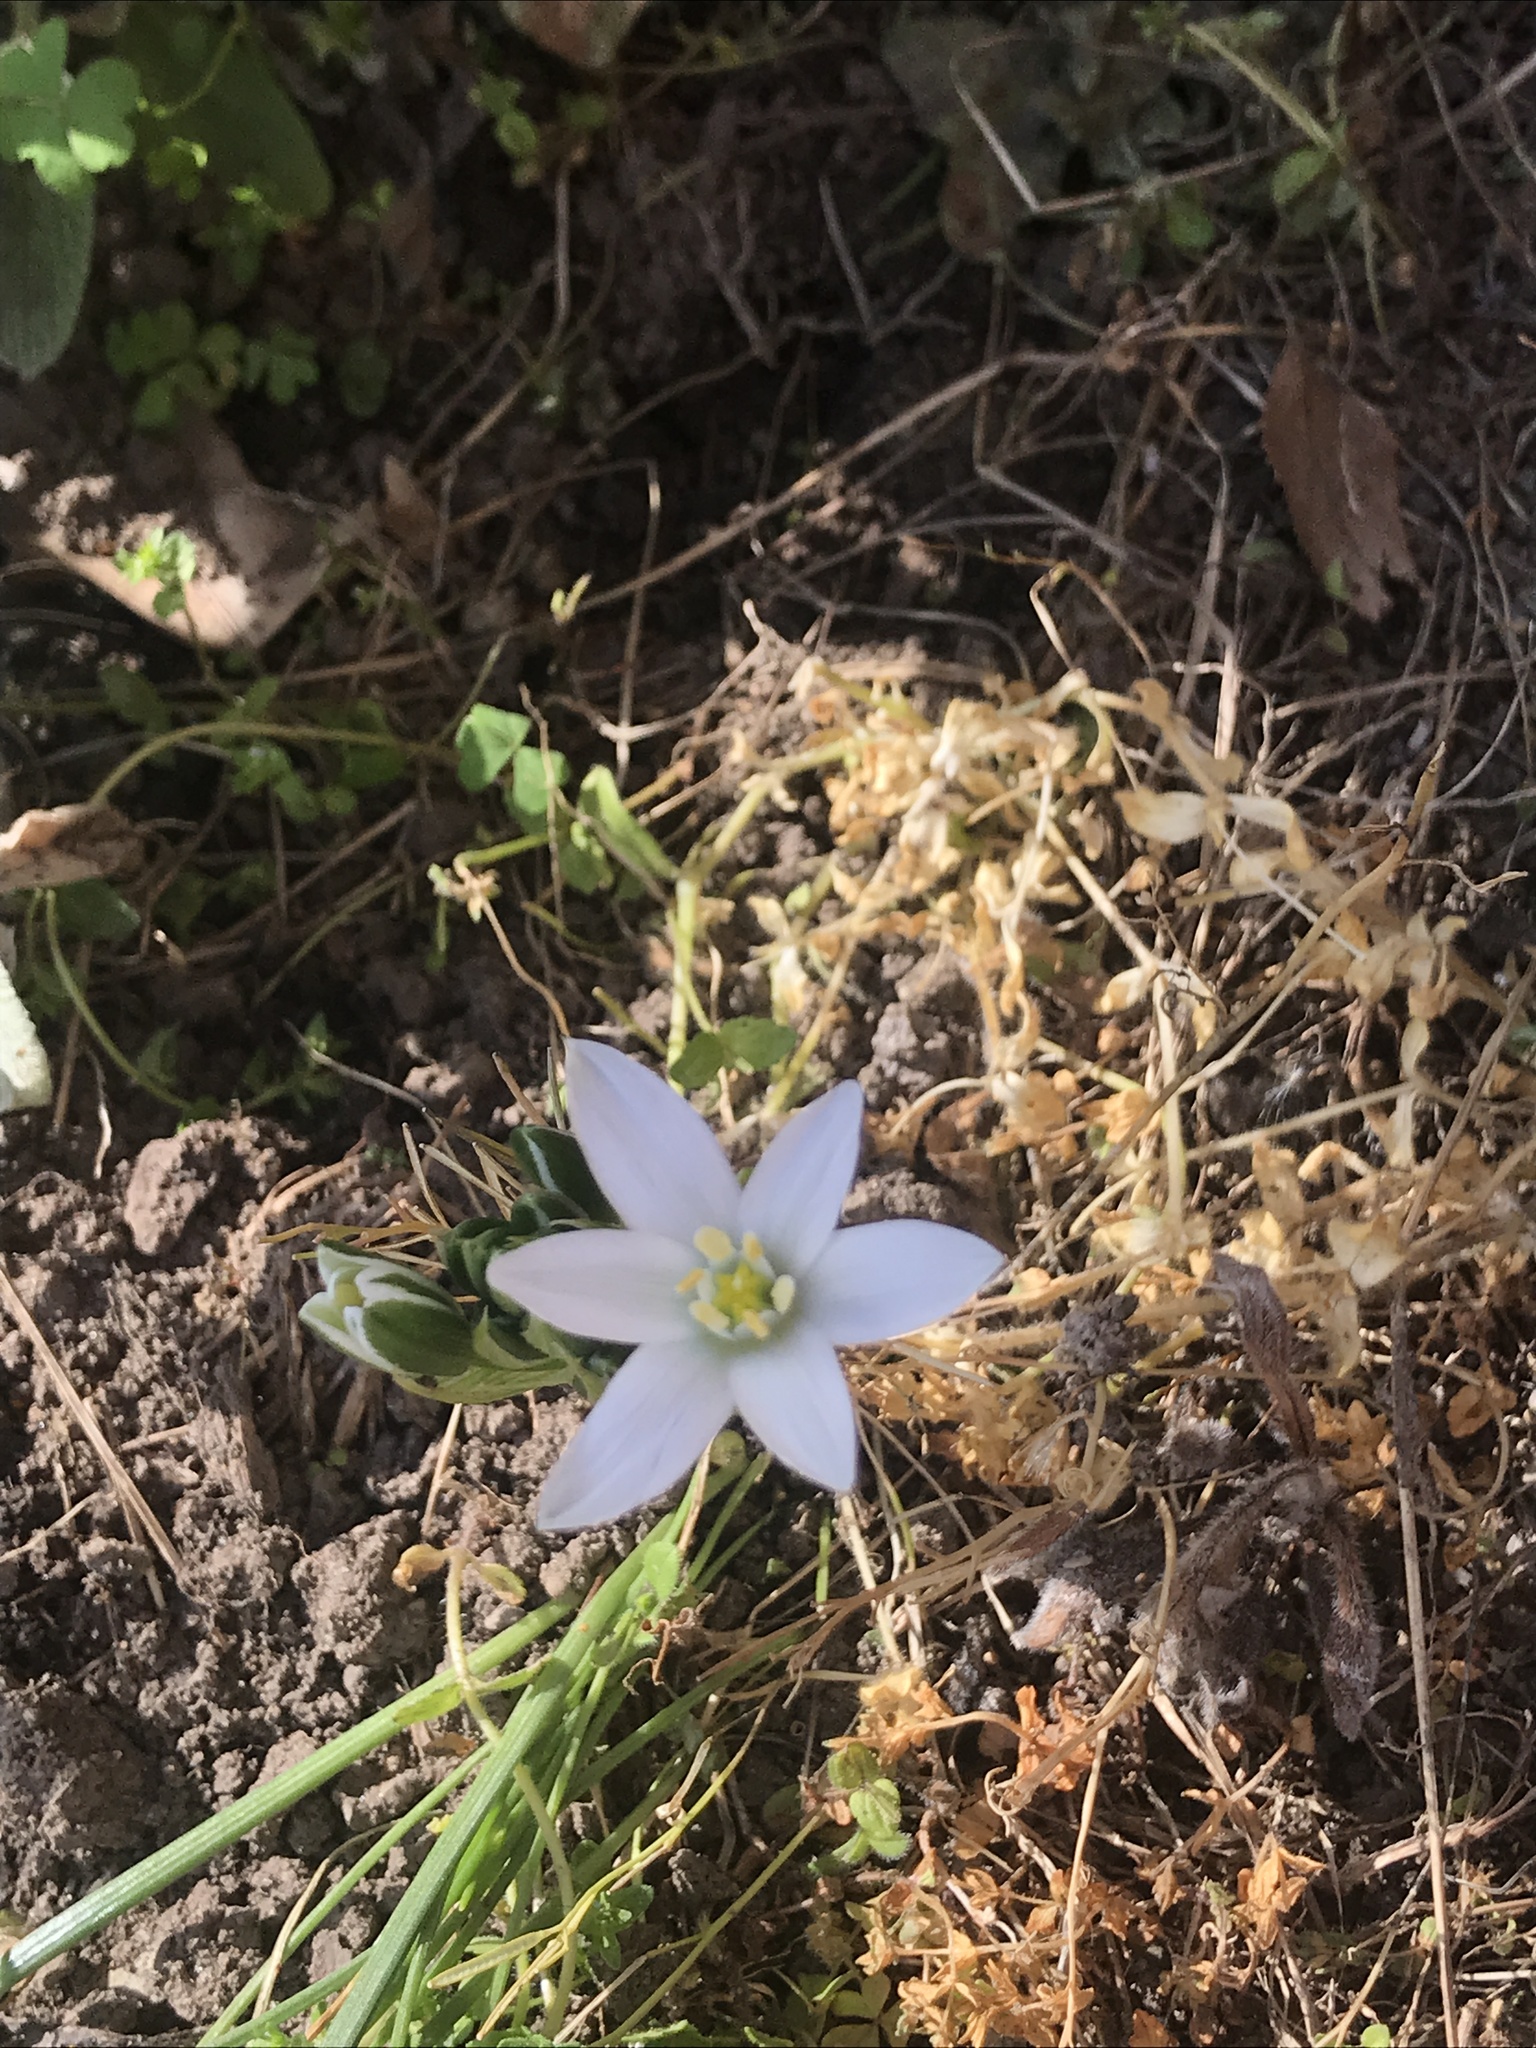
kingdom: Plantae
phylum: Tracheophyta
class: Liliopsida
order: Asparagales
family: Asparagaceae
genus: Ornithogalum
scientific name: Ornithogalum umbellatum
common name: Garden star-of-bethlehem
